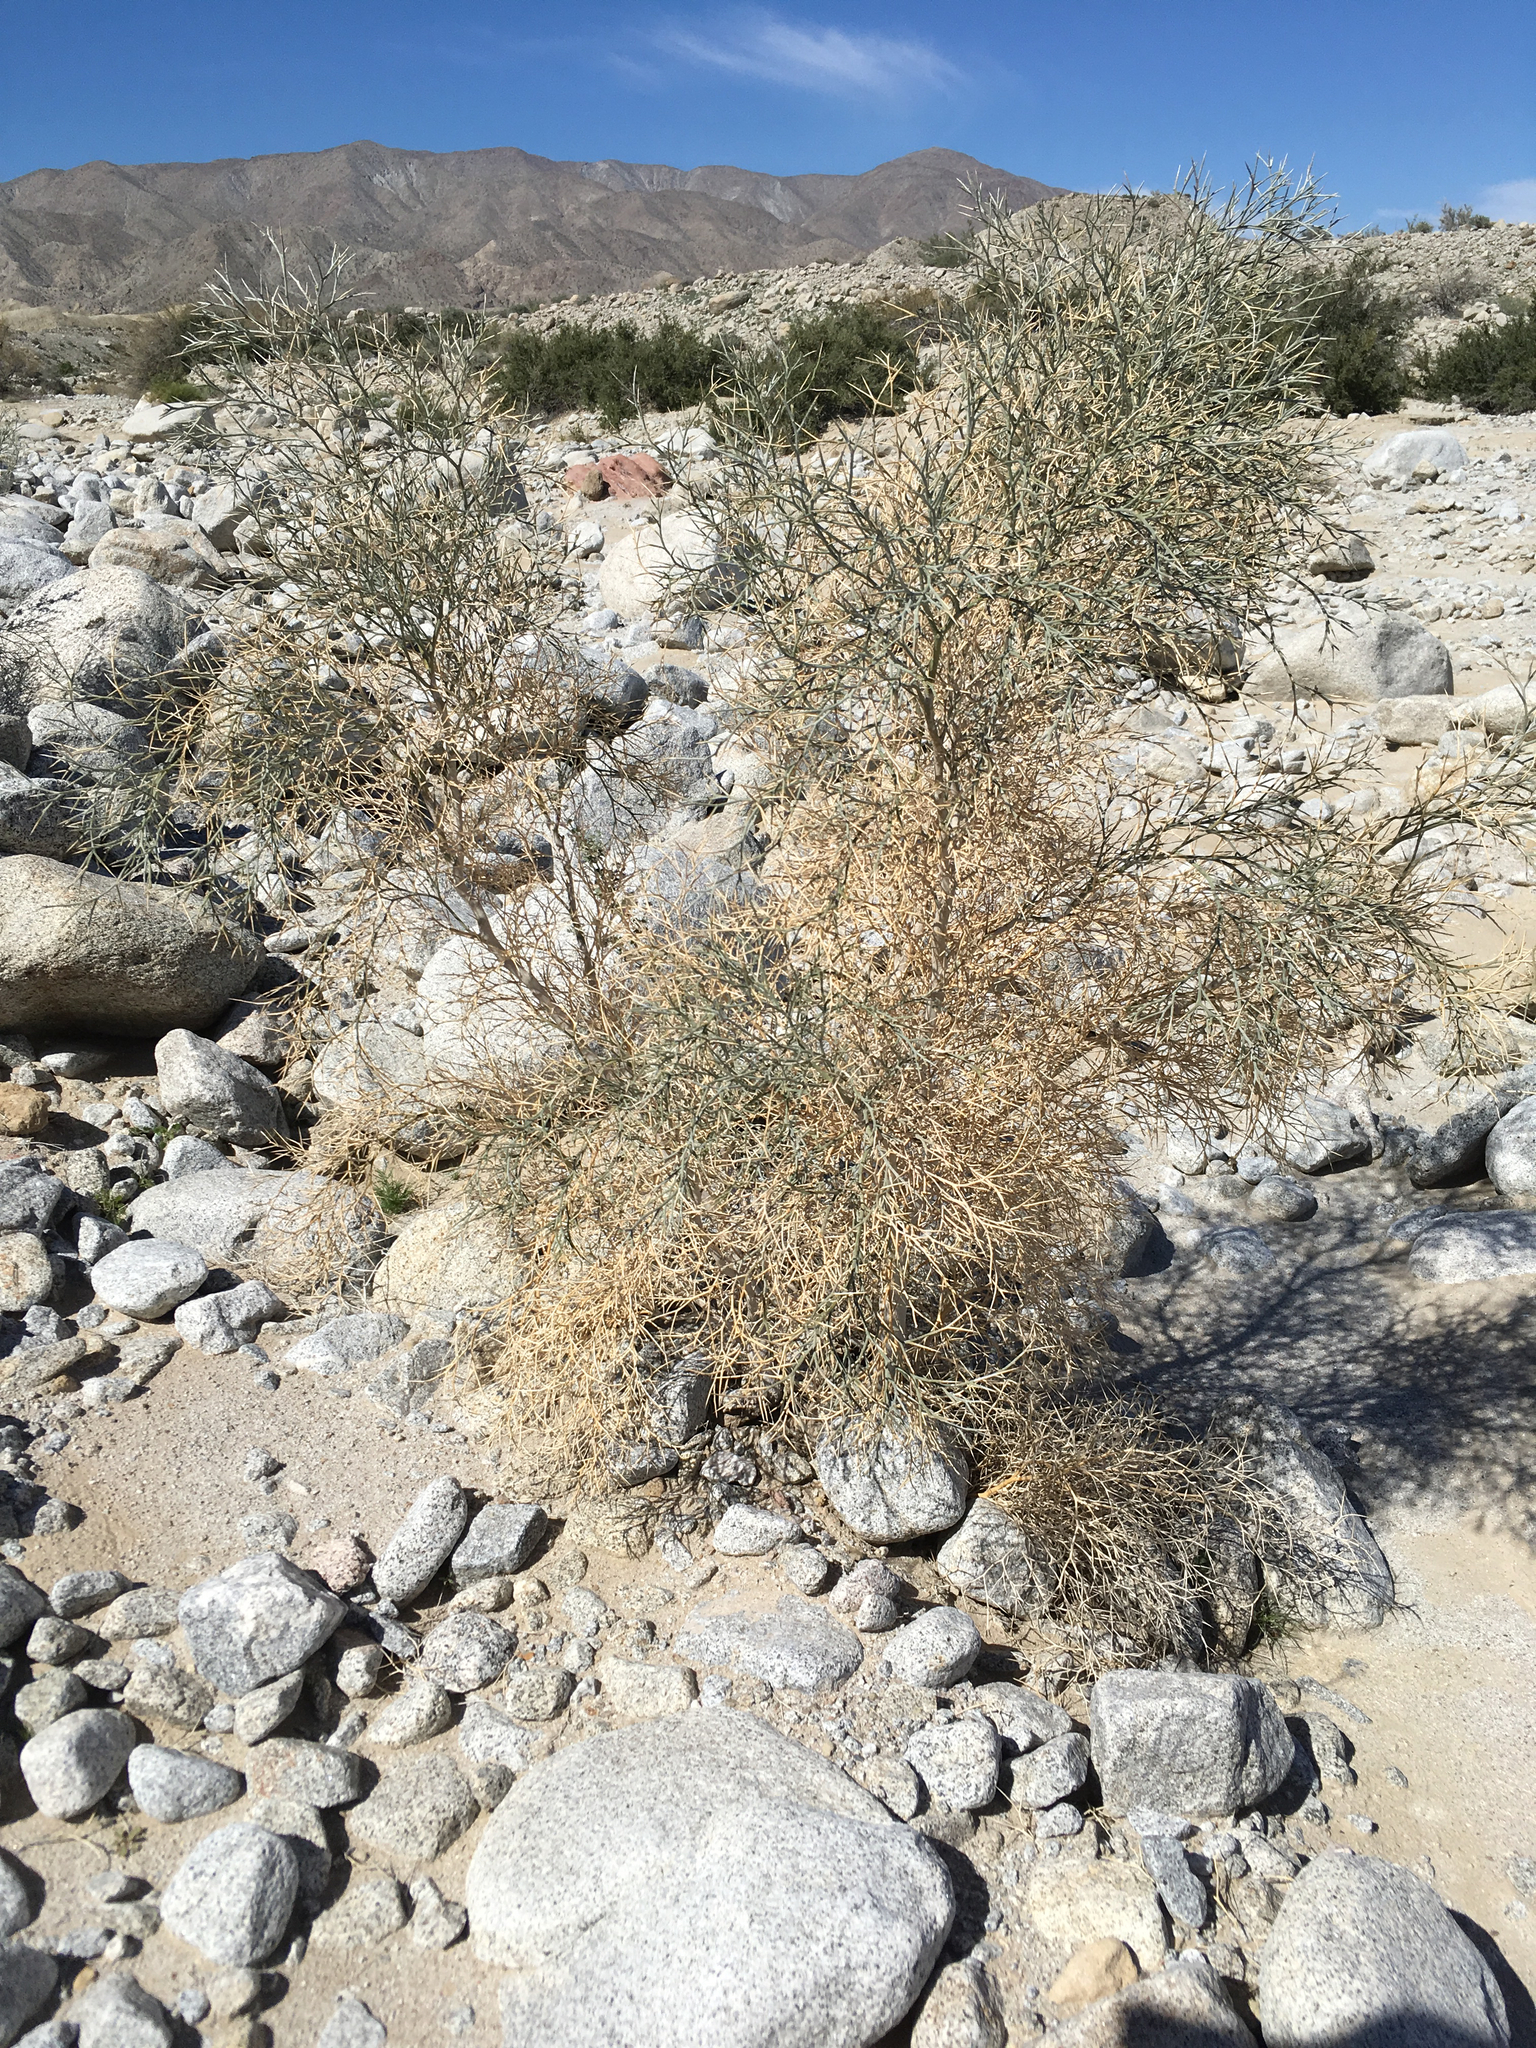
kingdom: Plantae
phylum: Tracheophyta
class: Magnoliopsida
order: Fabales
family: Fabaceae
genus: Psorothamnus
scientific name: Psorothamnus spinosus
